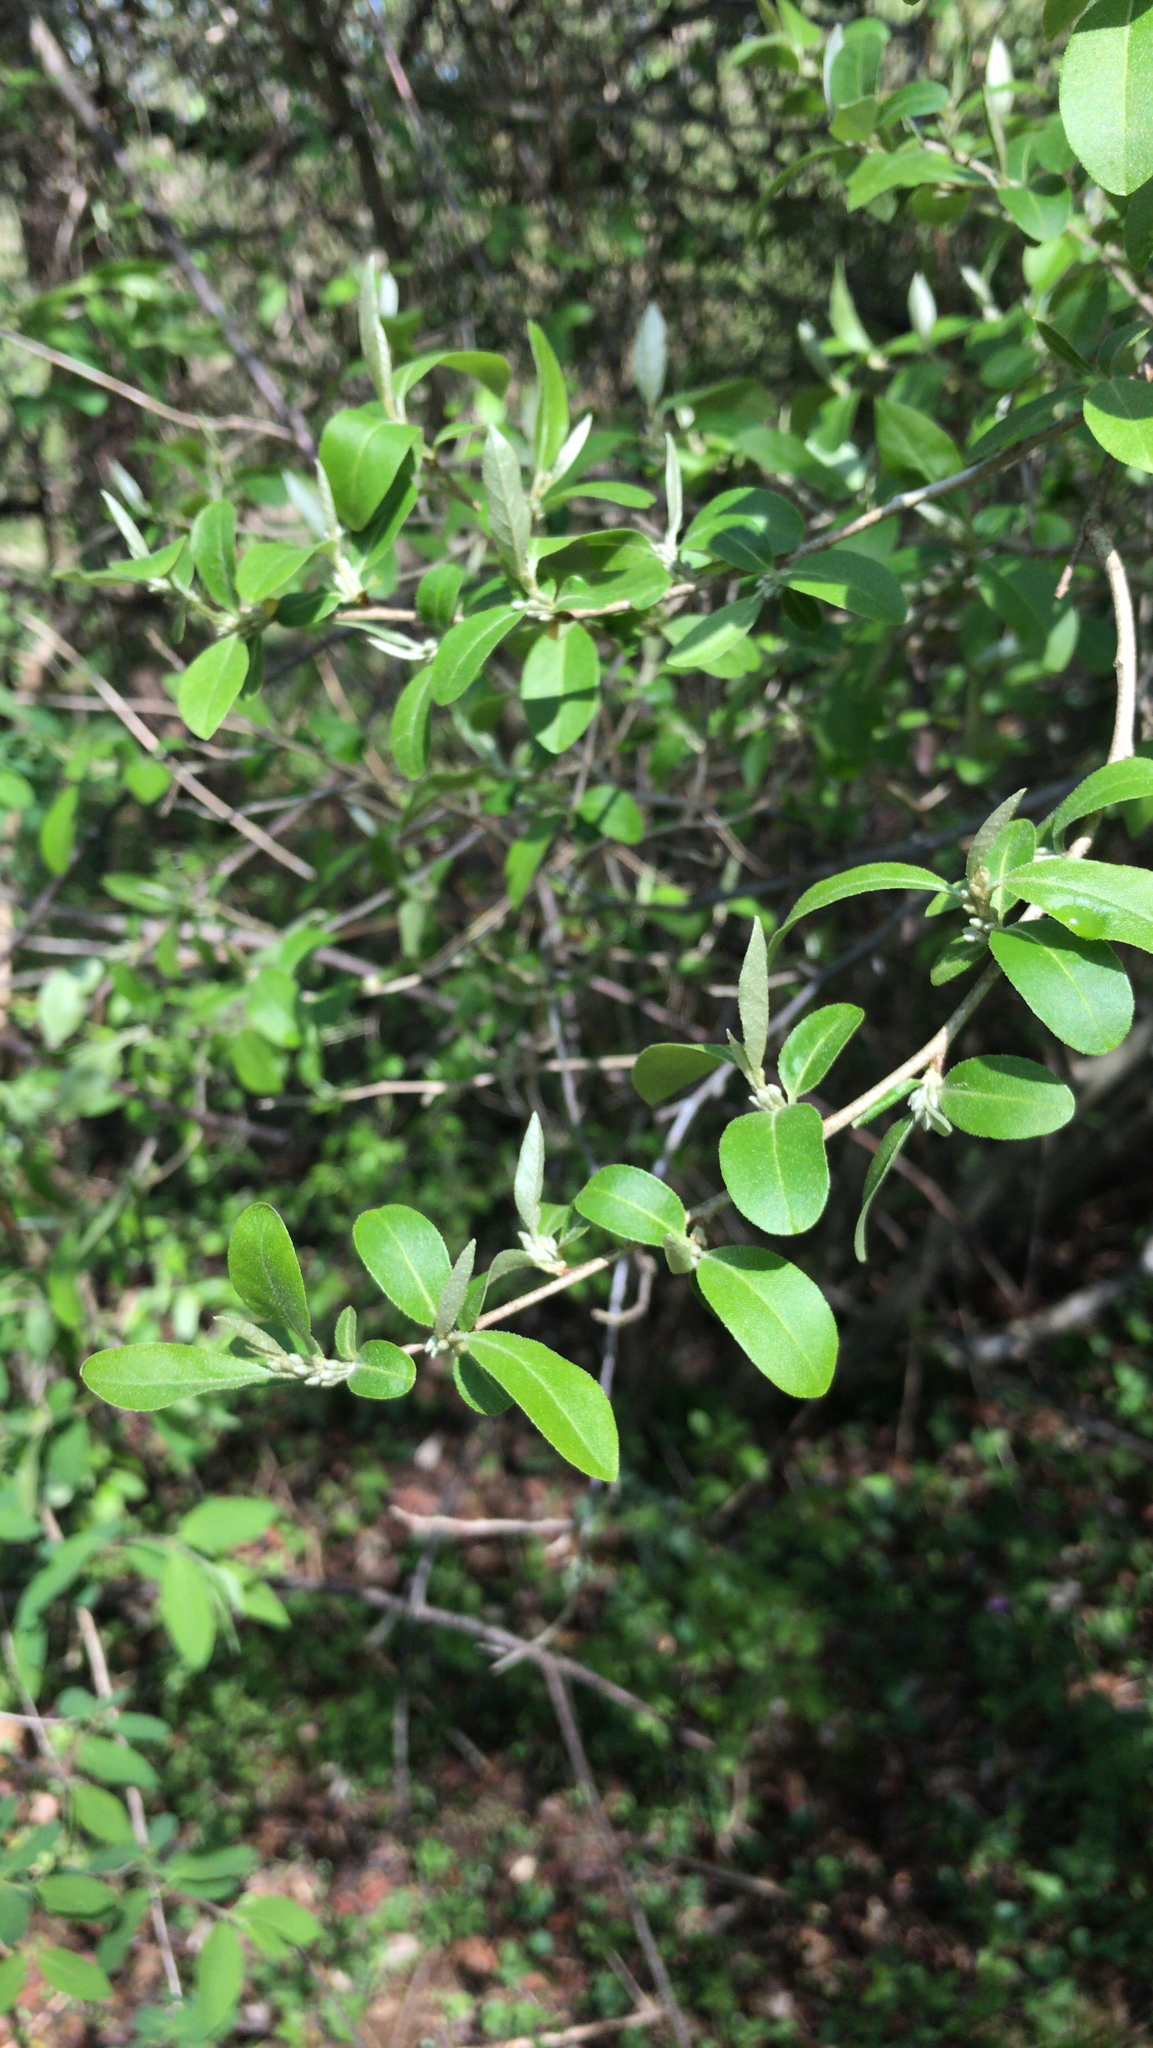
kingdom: Plantae
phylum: Tracheophyta
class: Magnoliopsida
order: Rosales
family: Elaeagnaceae
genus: Elaeagnus
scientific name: Elaeagnus umbellata
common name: Autumn olive
